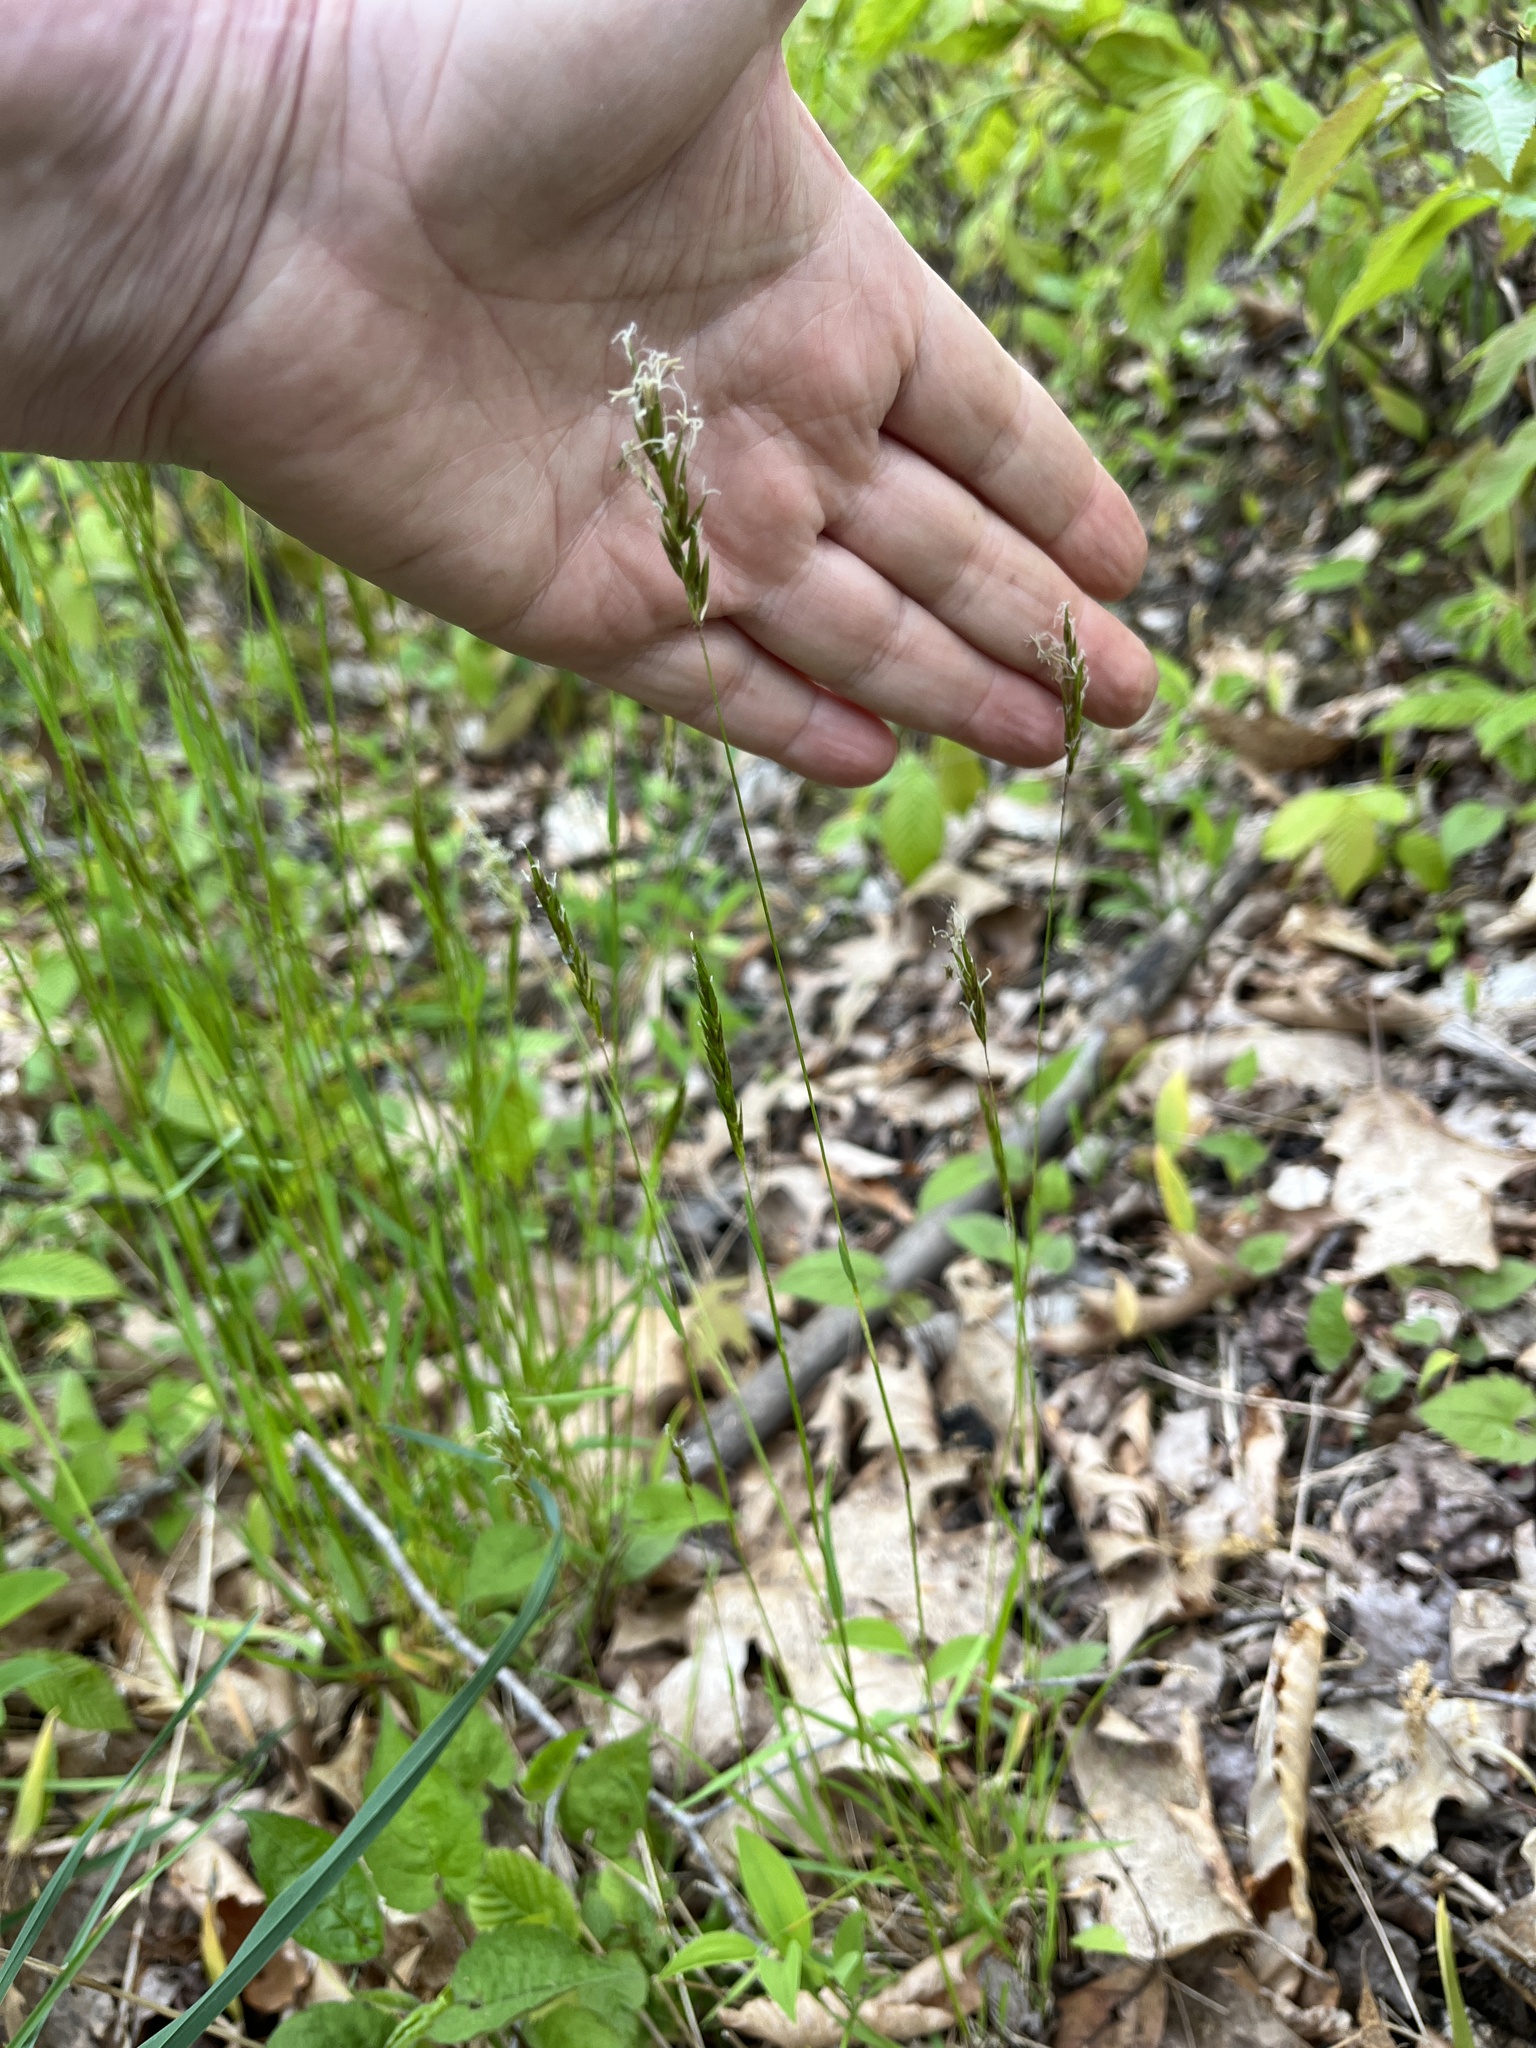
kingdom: Plantae
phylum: Tracheophyta
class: Liliopsida
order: Poales
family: Poaceae
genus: Anthoxanthum
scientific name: Anthoxanthum odoratum
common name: Sweet vernalgrass
